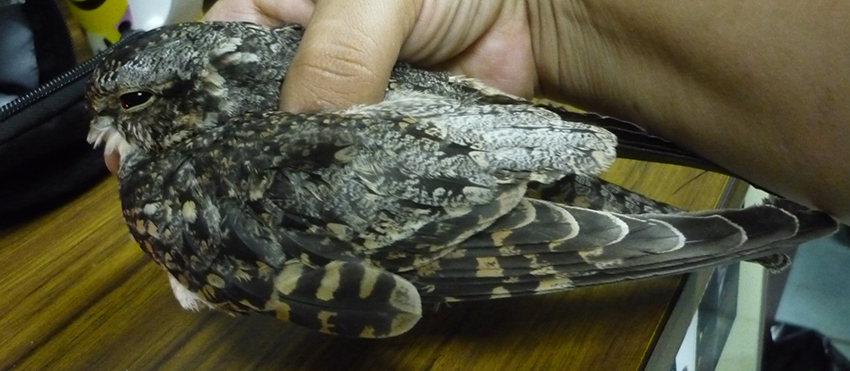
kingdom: Animalia
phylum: Chordata
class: Aves
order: Caprimulgiformes
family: Caprimulgidae
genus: Chordeiles
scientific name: Chordeiles acutipennis
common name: Lesser nighthawk
